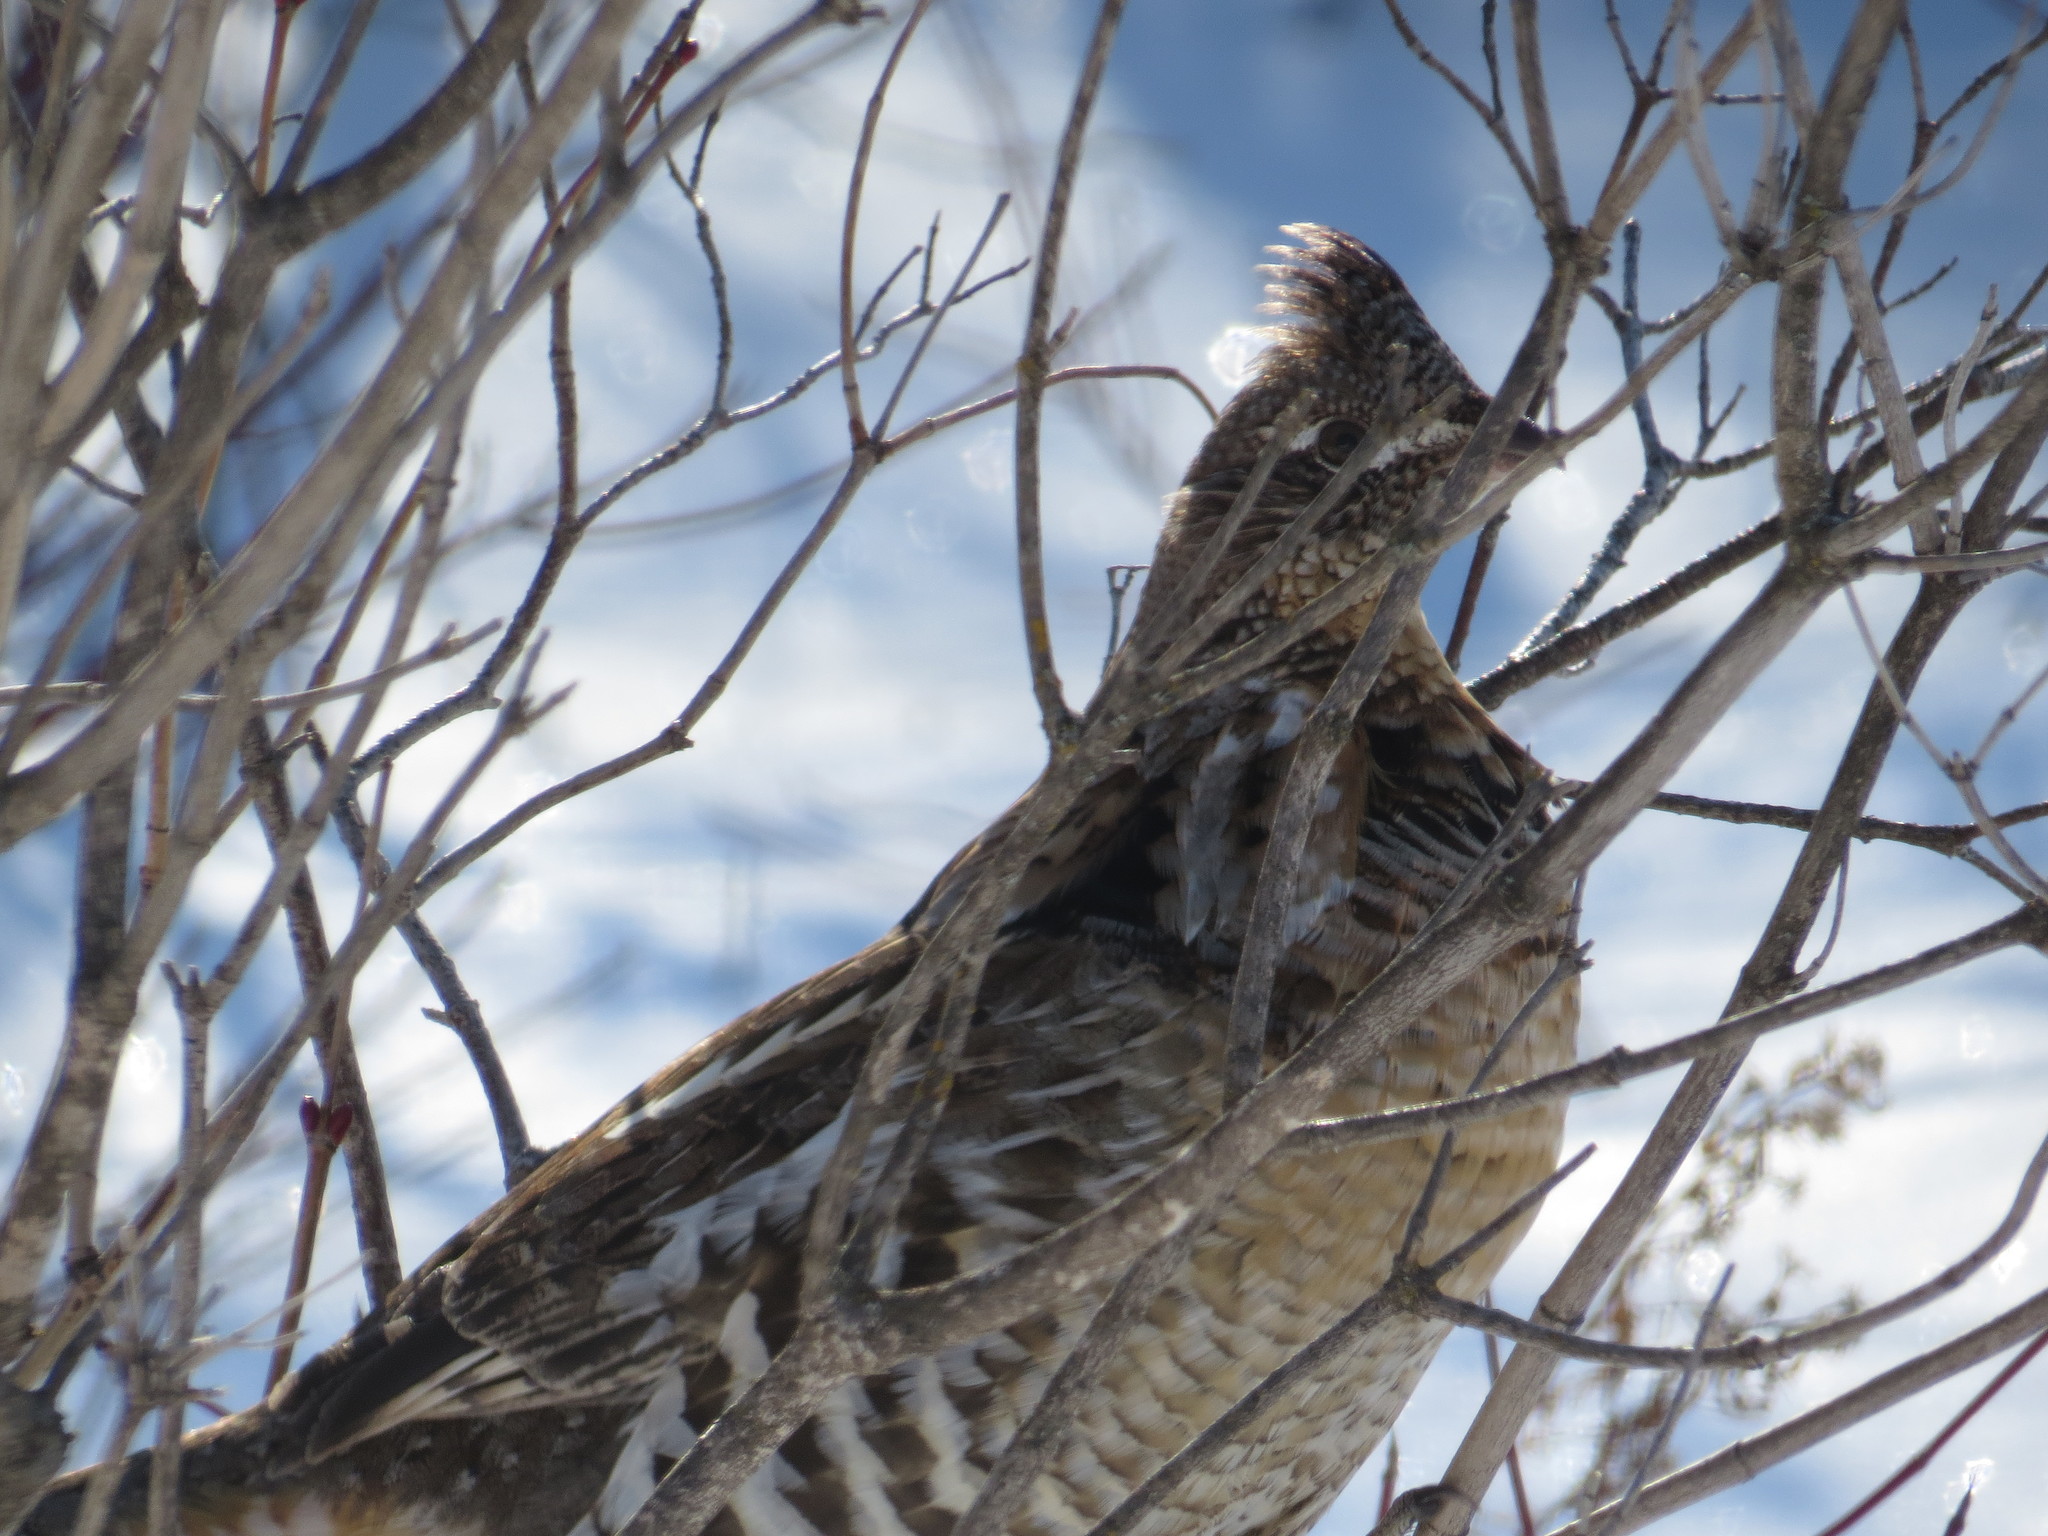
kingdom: Animalia
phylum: Chordata
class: Aves
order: Galliformes
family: Phasianidae
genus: Bonasa
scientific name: Bonasa umbellus
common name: Ruffed grouse
